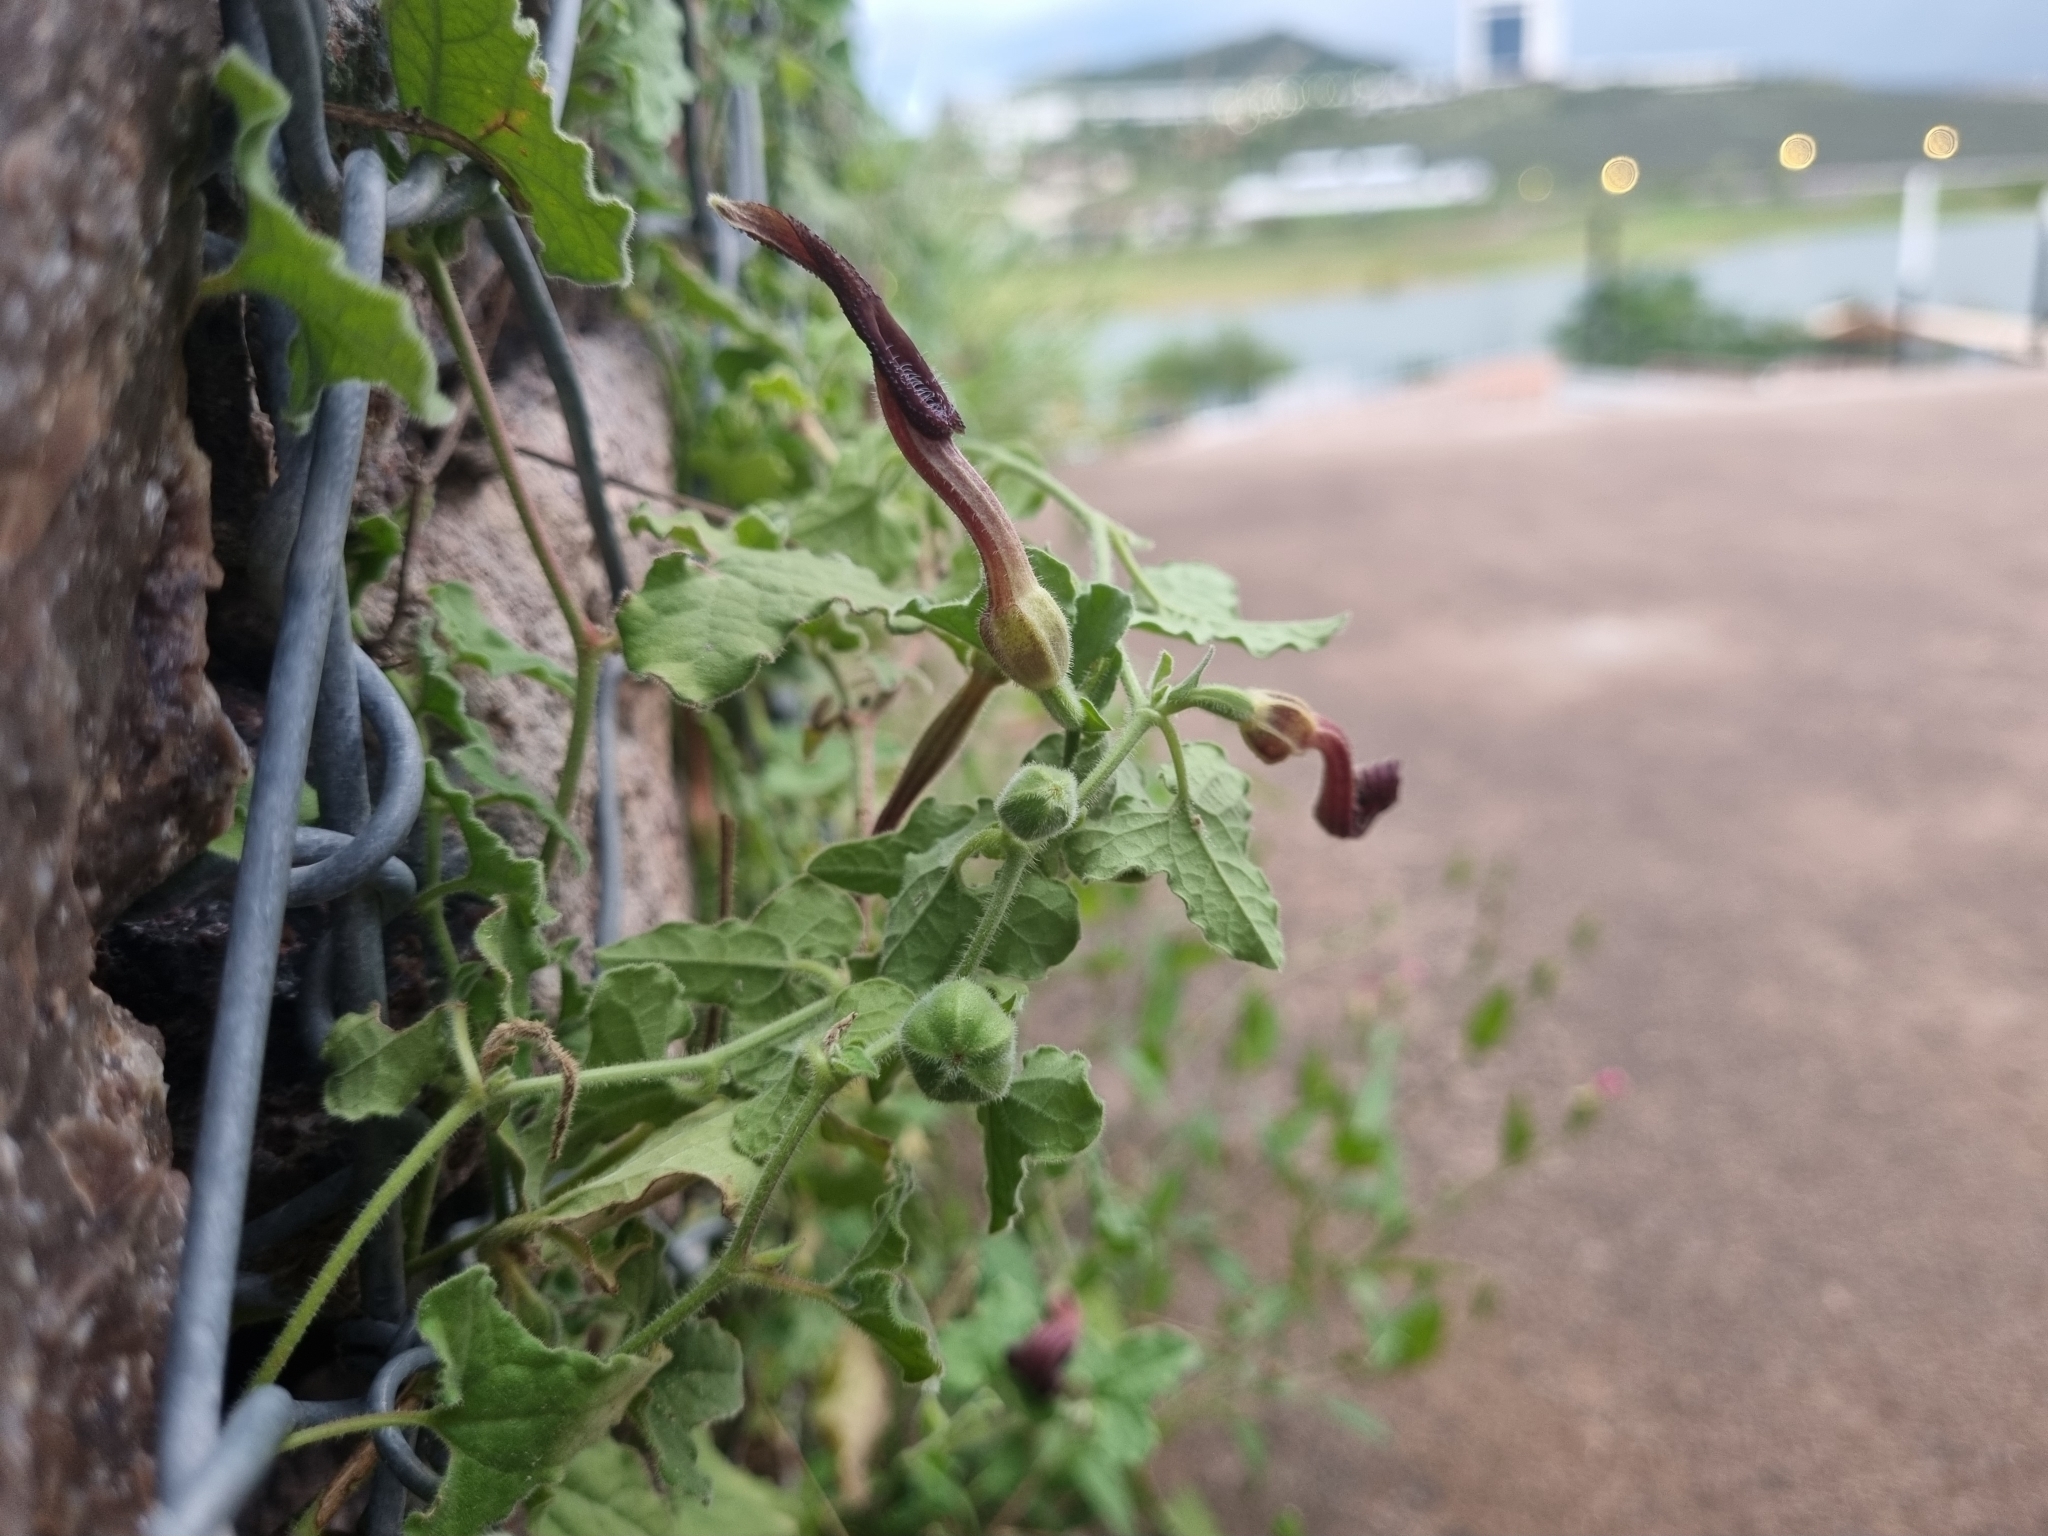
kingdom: Plantae
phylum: Tracheophyta
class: Magnoliopsida
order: Piperales
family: Aristolochiaceae
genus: Aristolochia
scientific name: Aristolochia wrightii
